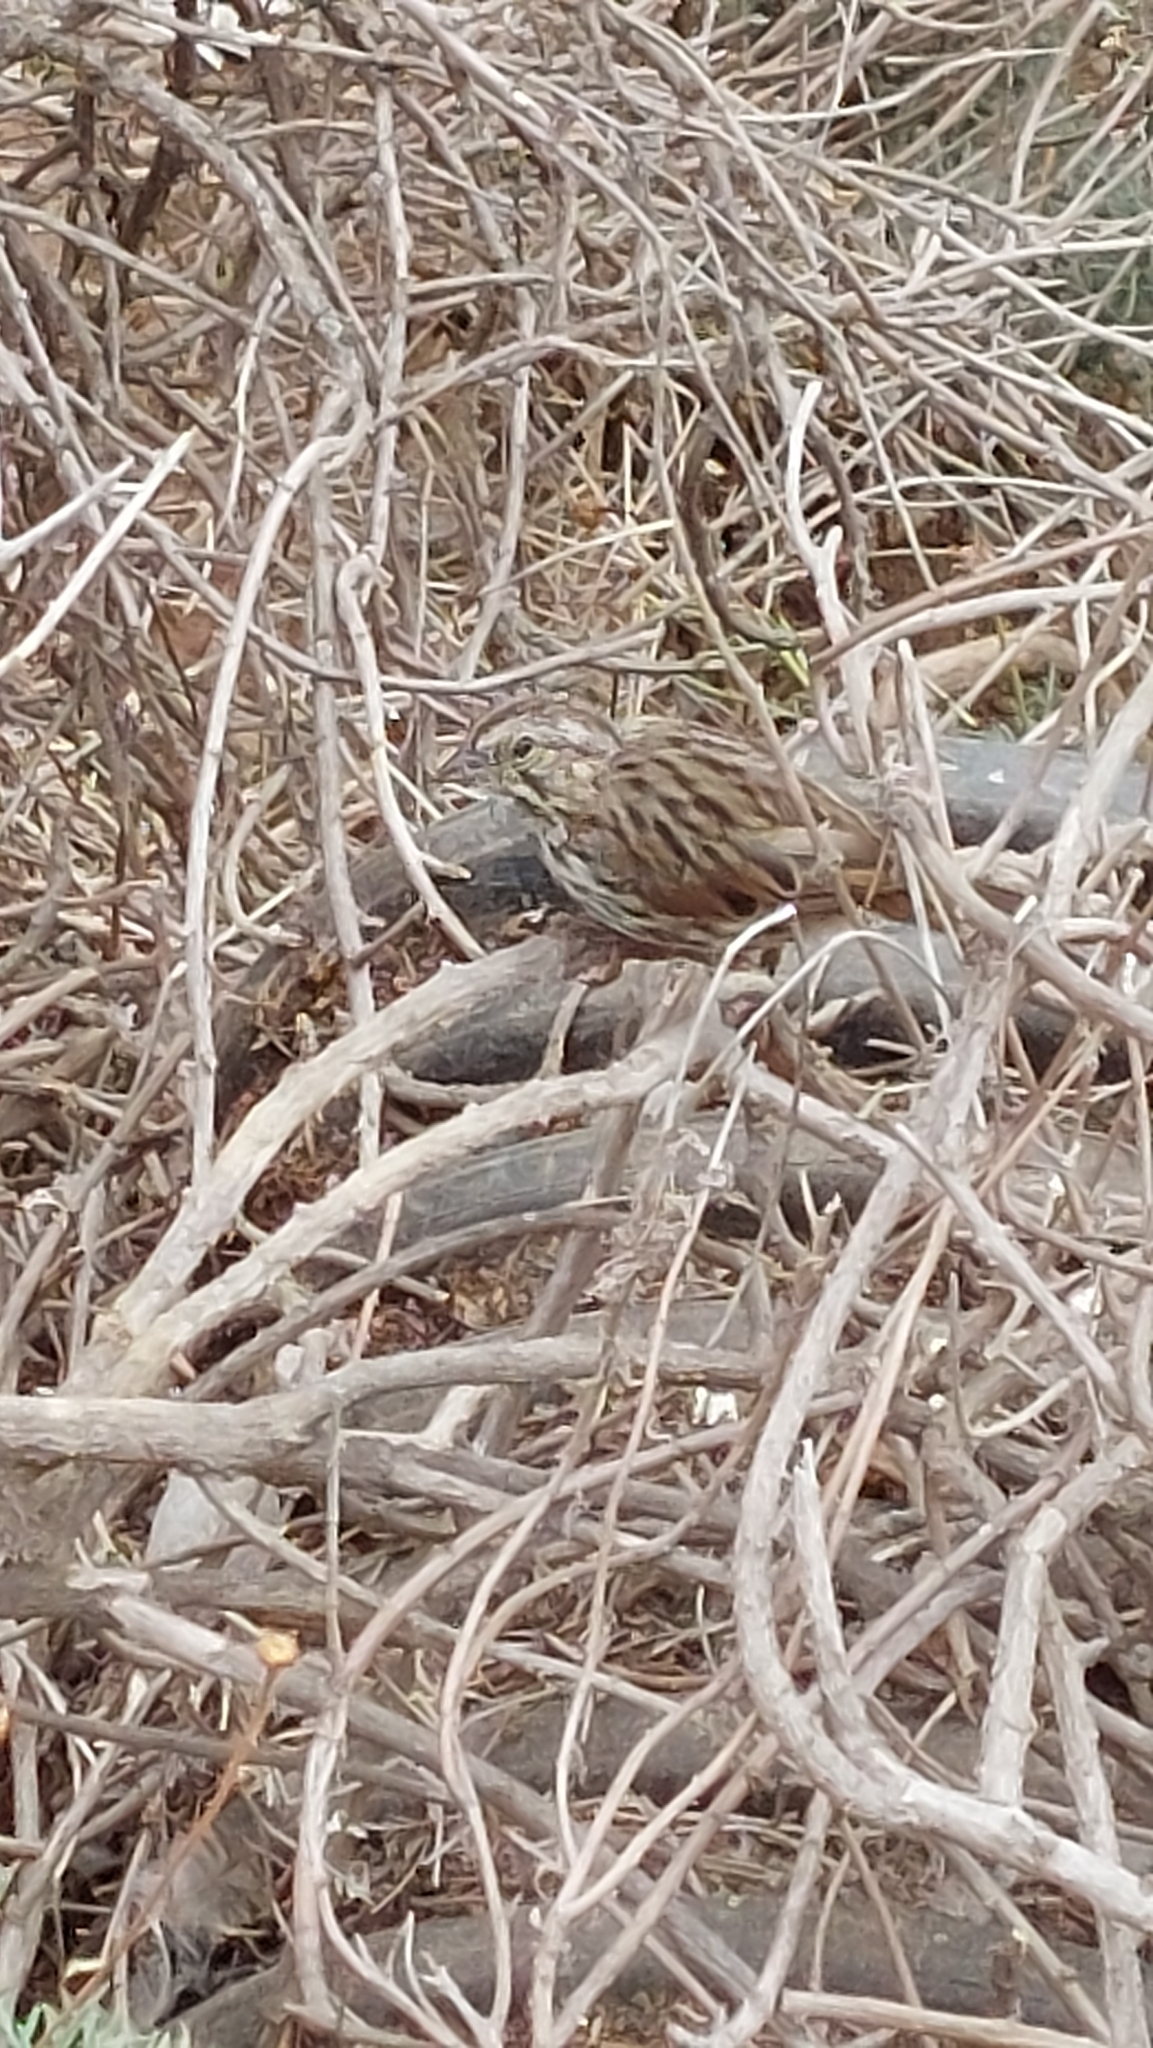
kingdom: Animalia
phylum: Chordata
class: Aves
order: Passeriformes
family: Passerellidae
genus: Melospiza
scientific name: Melospiza melodia
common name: Song sparrow
